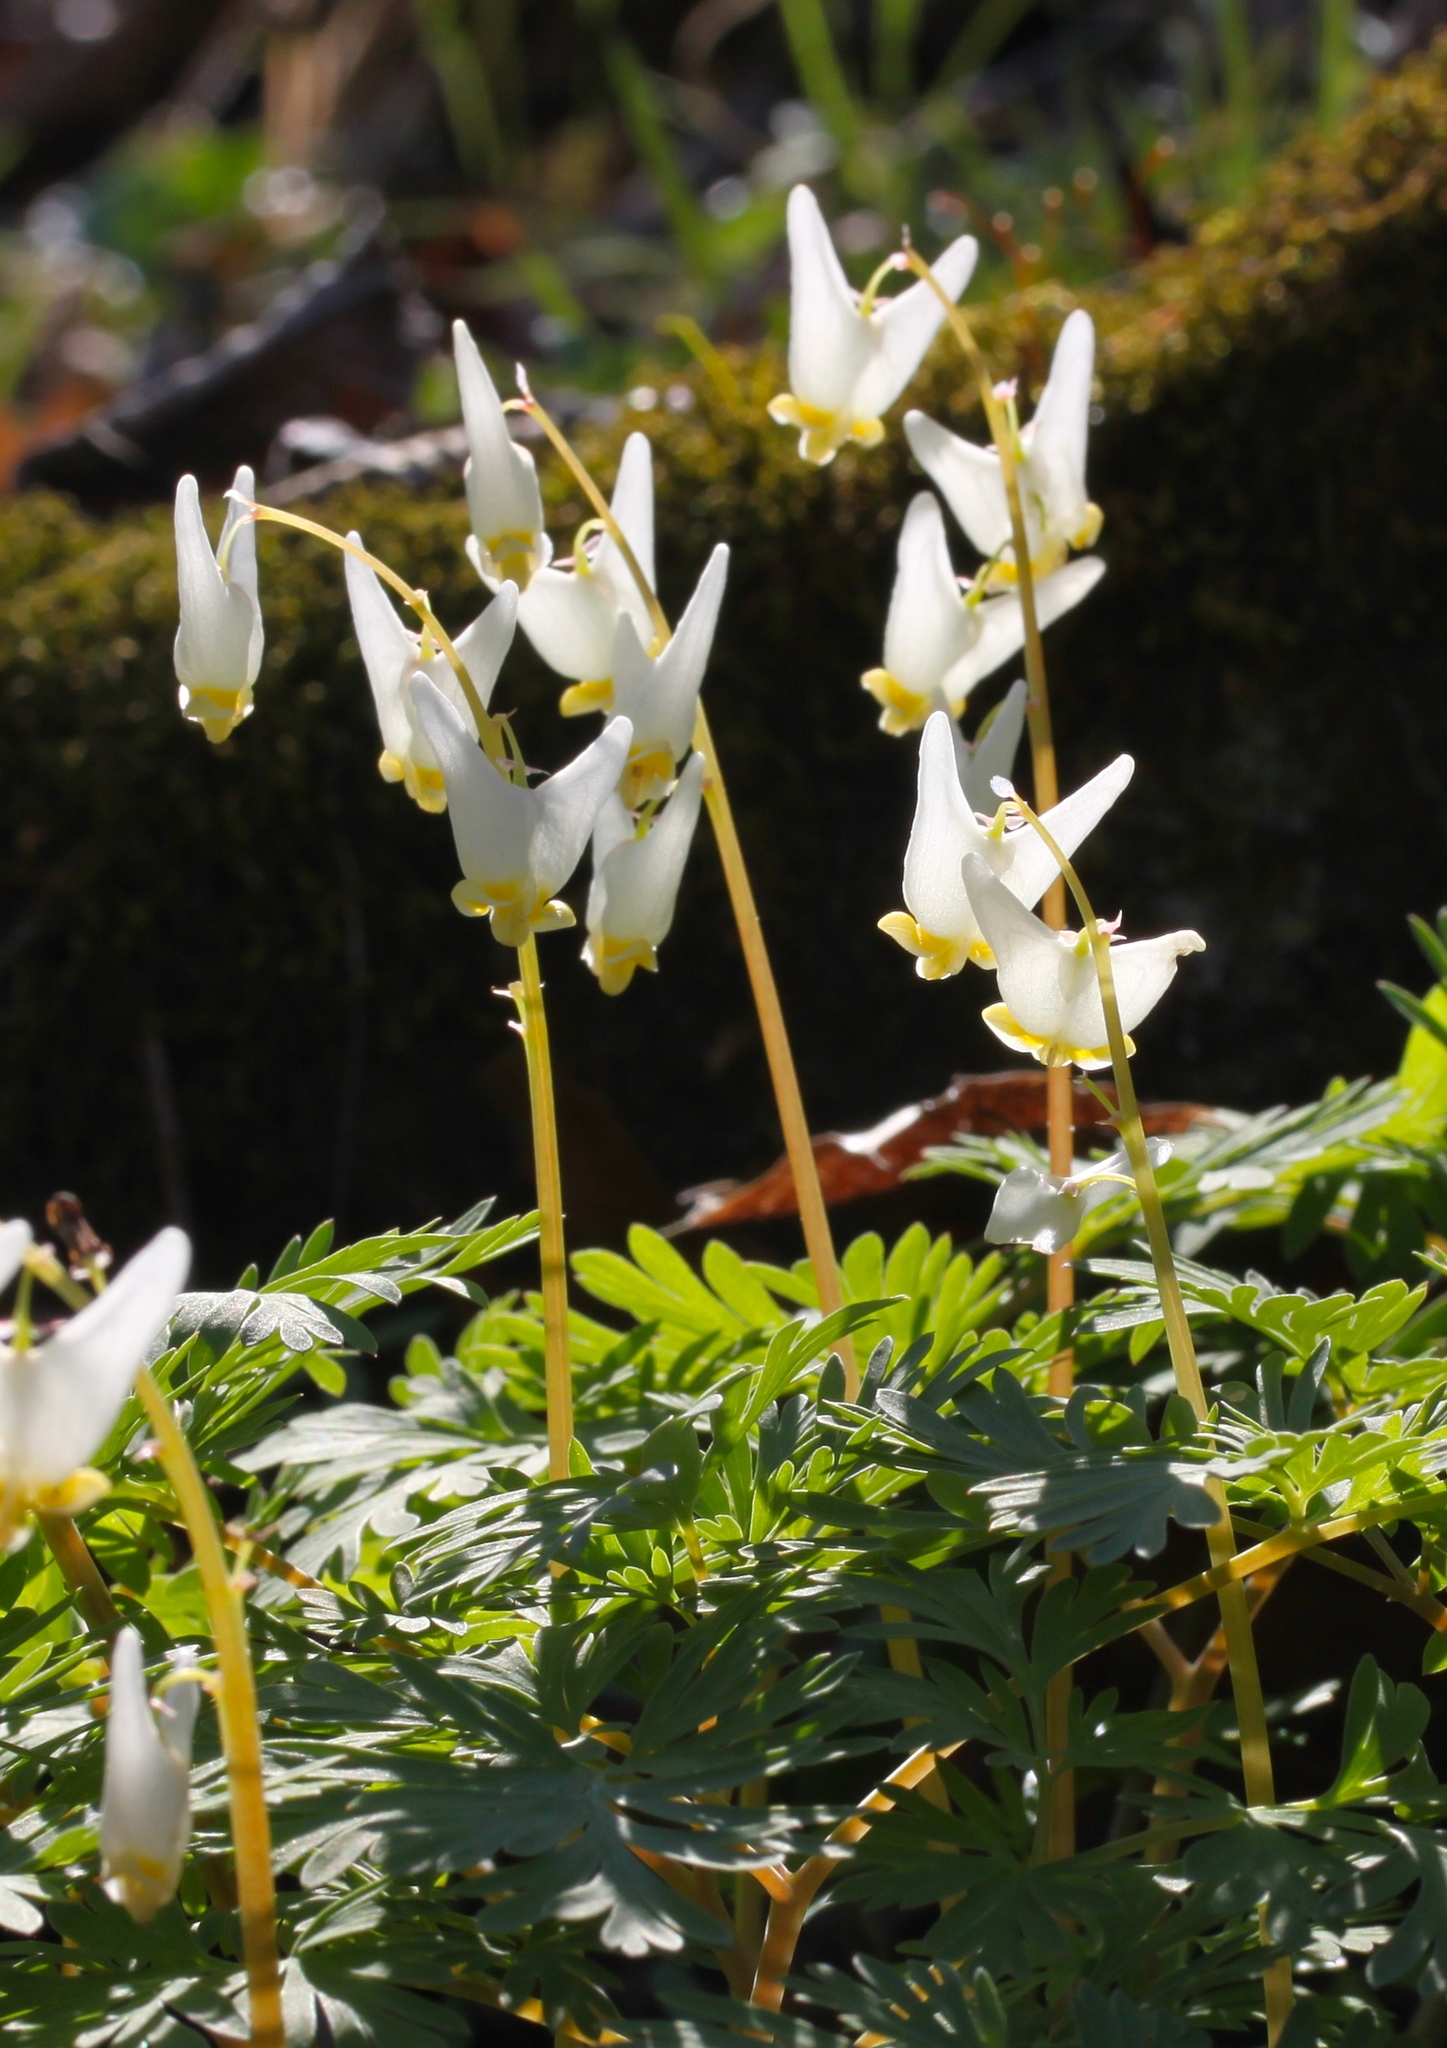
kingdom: Plantae
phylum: Tracheophyta
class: Magnoliopsida
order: Ranunculales
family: Papaveraceae
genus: Dicentra
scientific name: Dicentra cucullaria
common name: Dutchman's breeches
